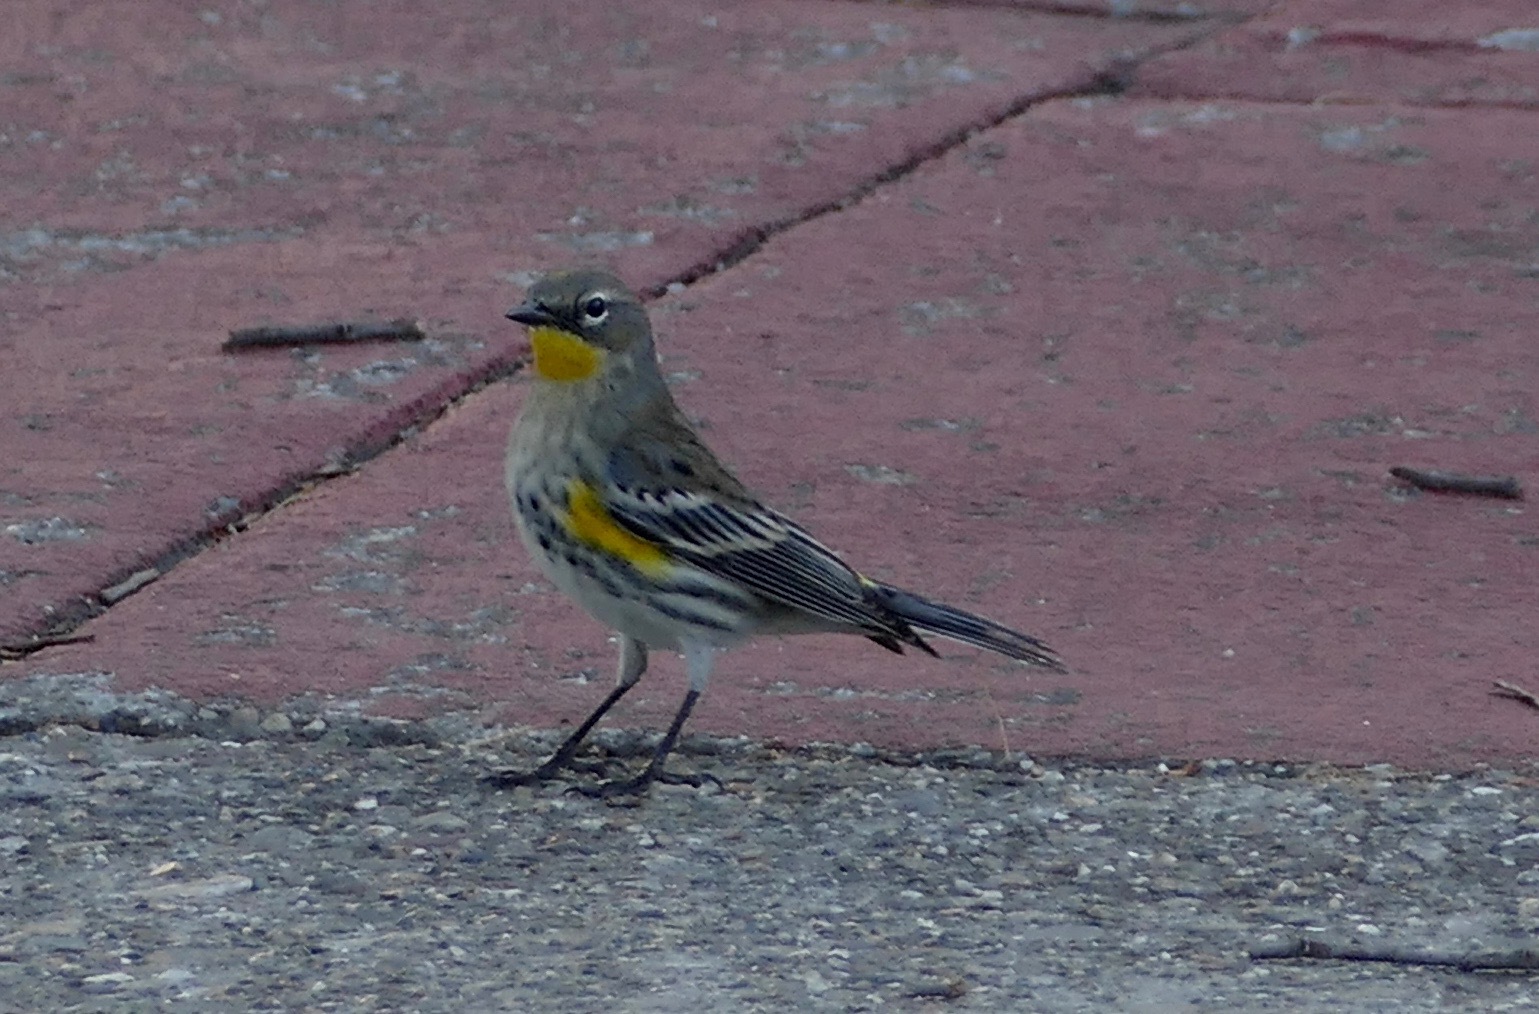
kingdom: Animalia
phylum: Chordata
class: Aves
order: Passeriformes
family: Parulidae
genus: Setophaga
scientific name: Setophaga coronata
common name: Myrtle warbler
